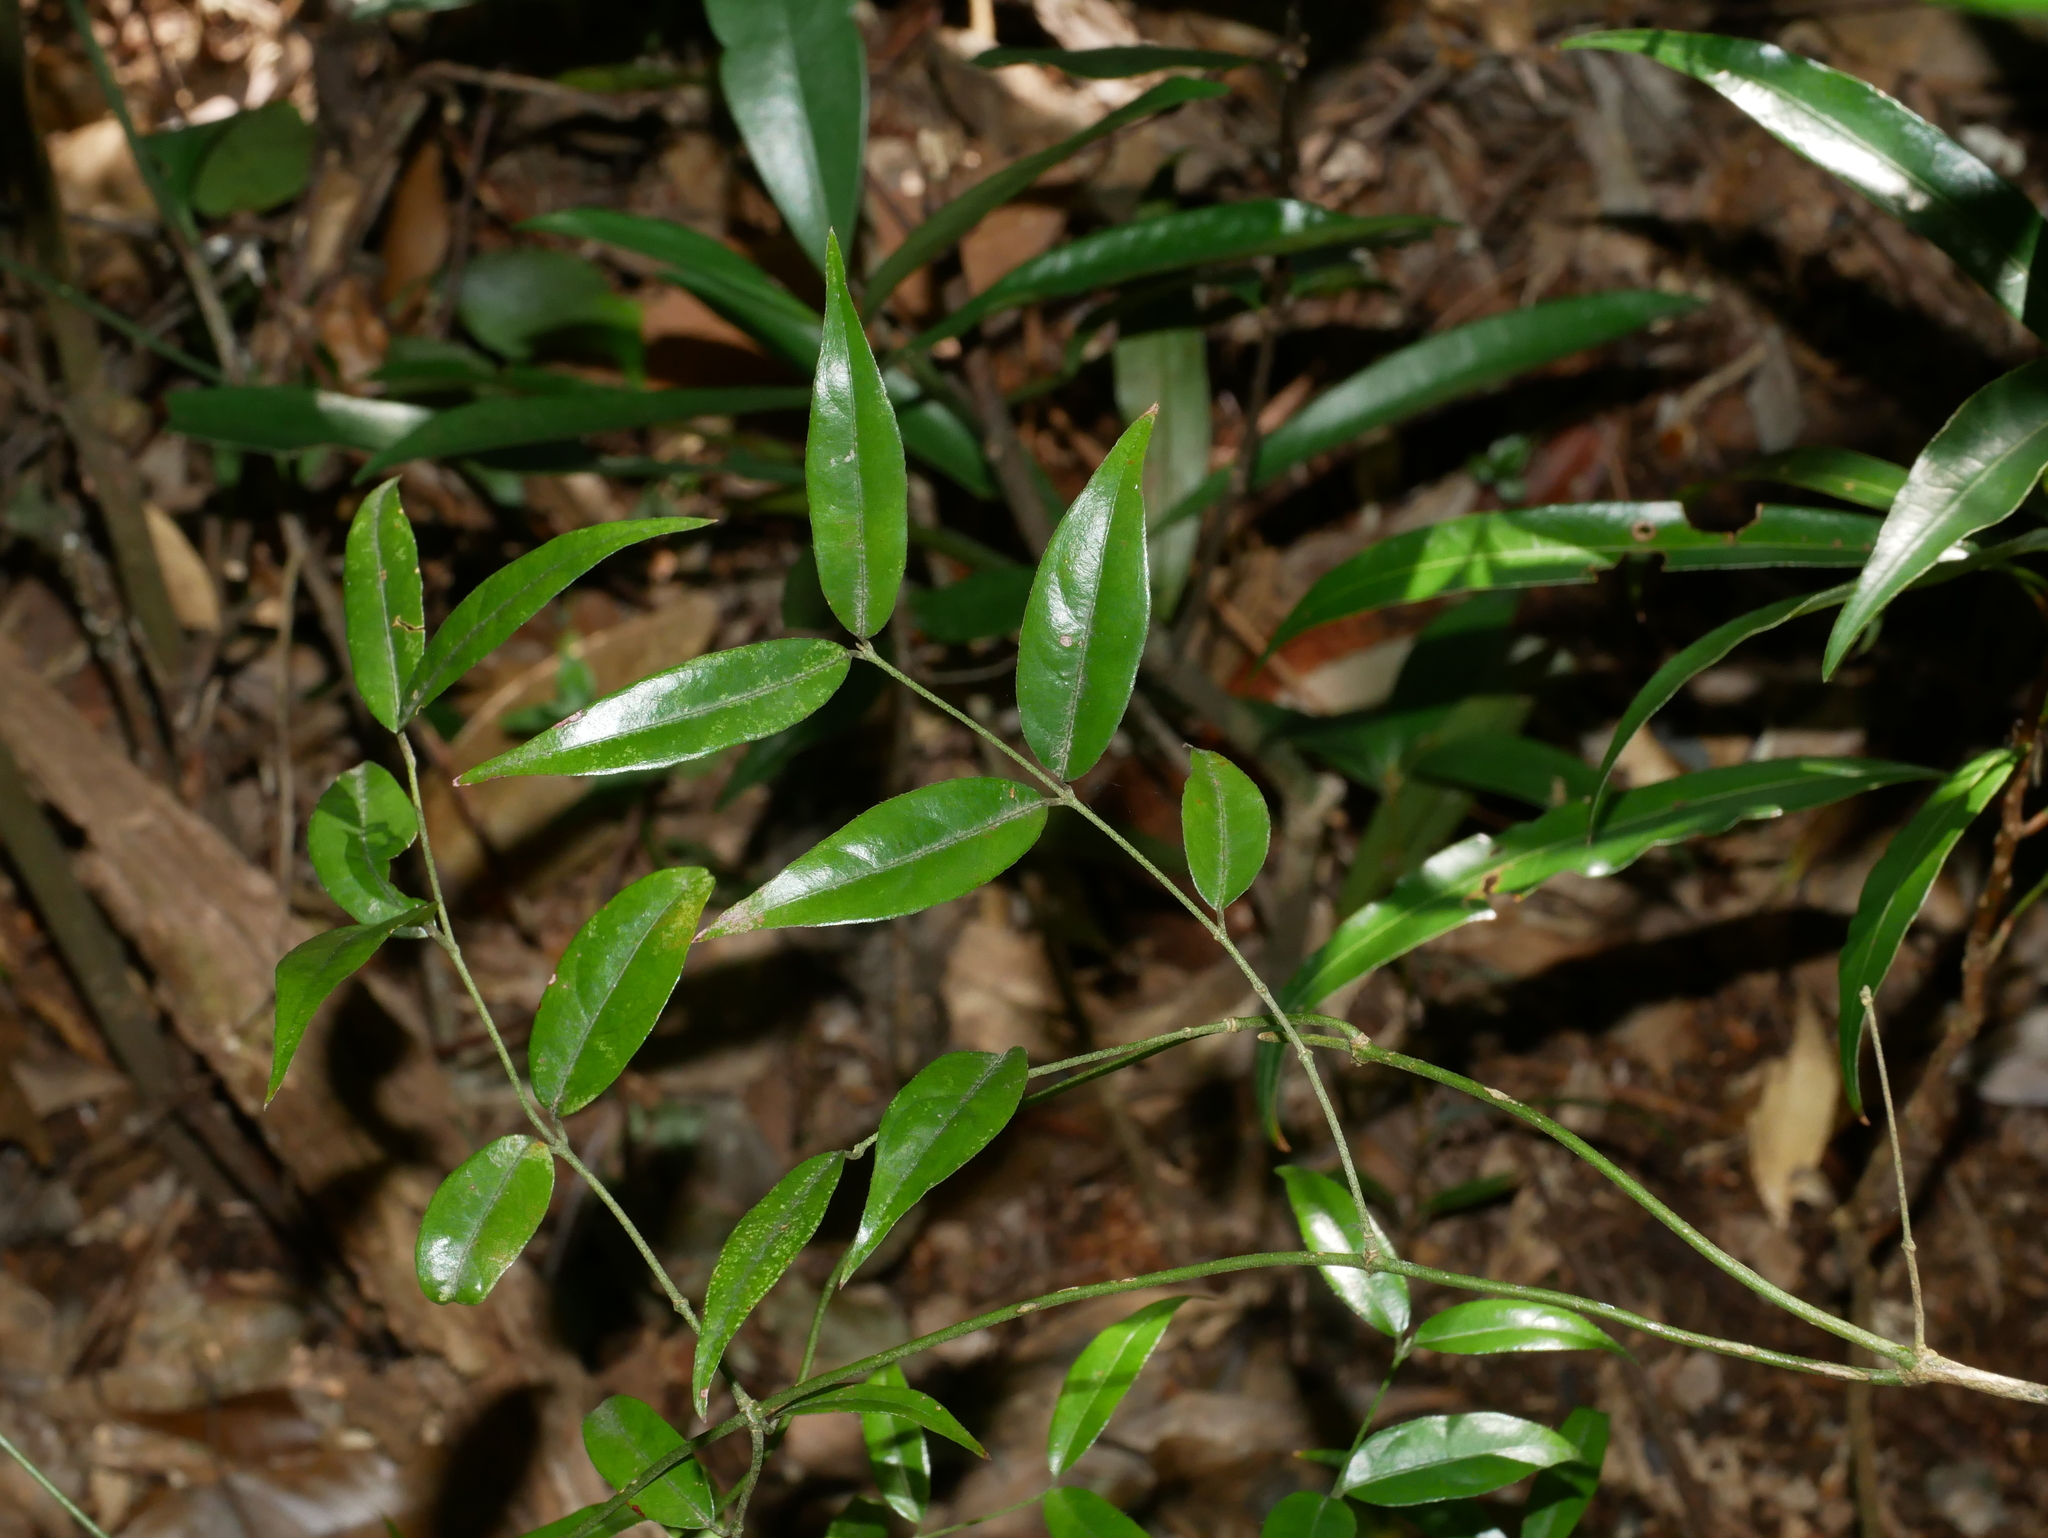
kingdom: Plantae
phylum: Tracheophyta
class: Magnoliopsida
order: Gentianales
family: Rubiaceae
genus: Coptosapelta
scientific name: Coptosapelta diffusa
